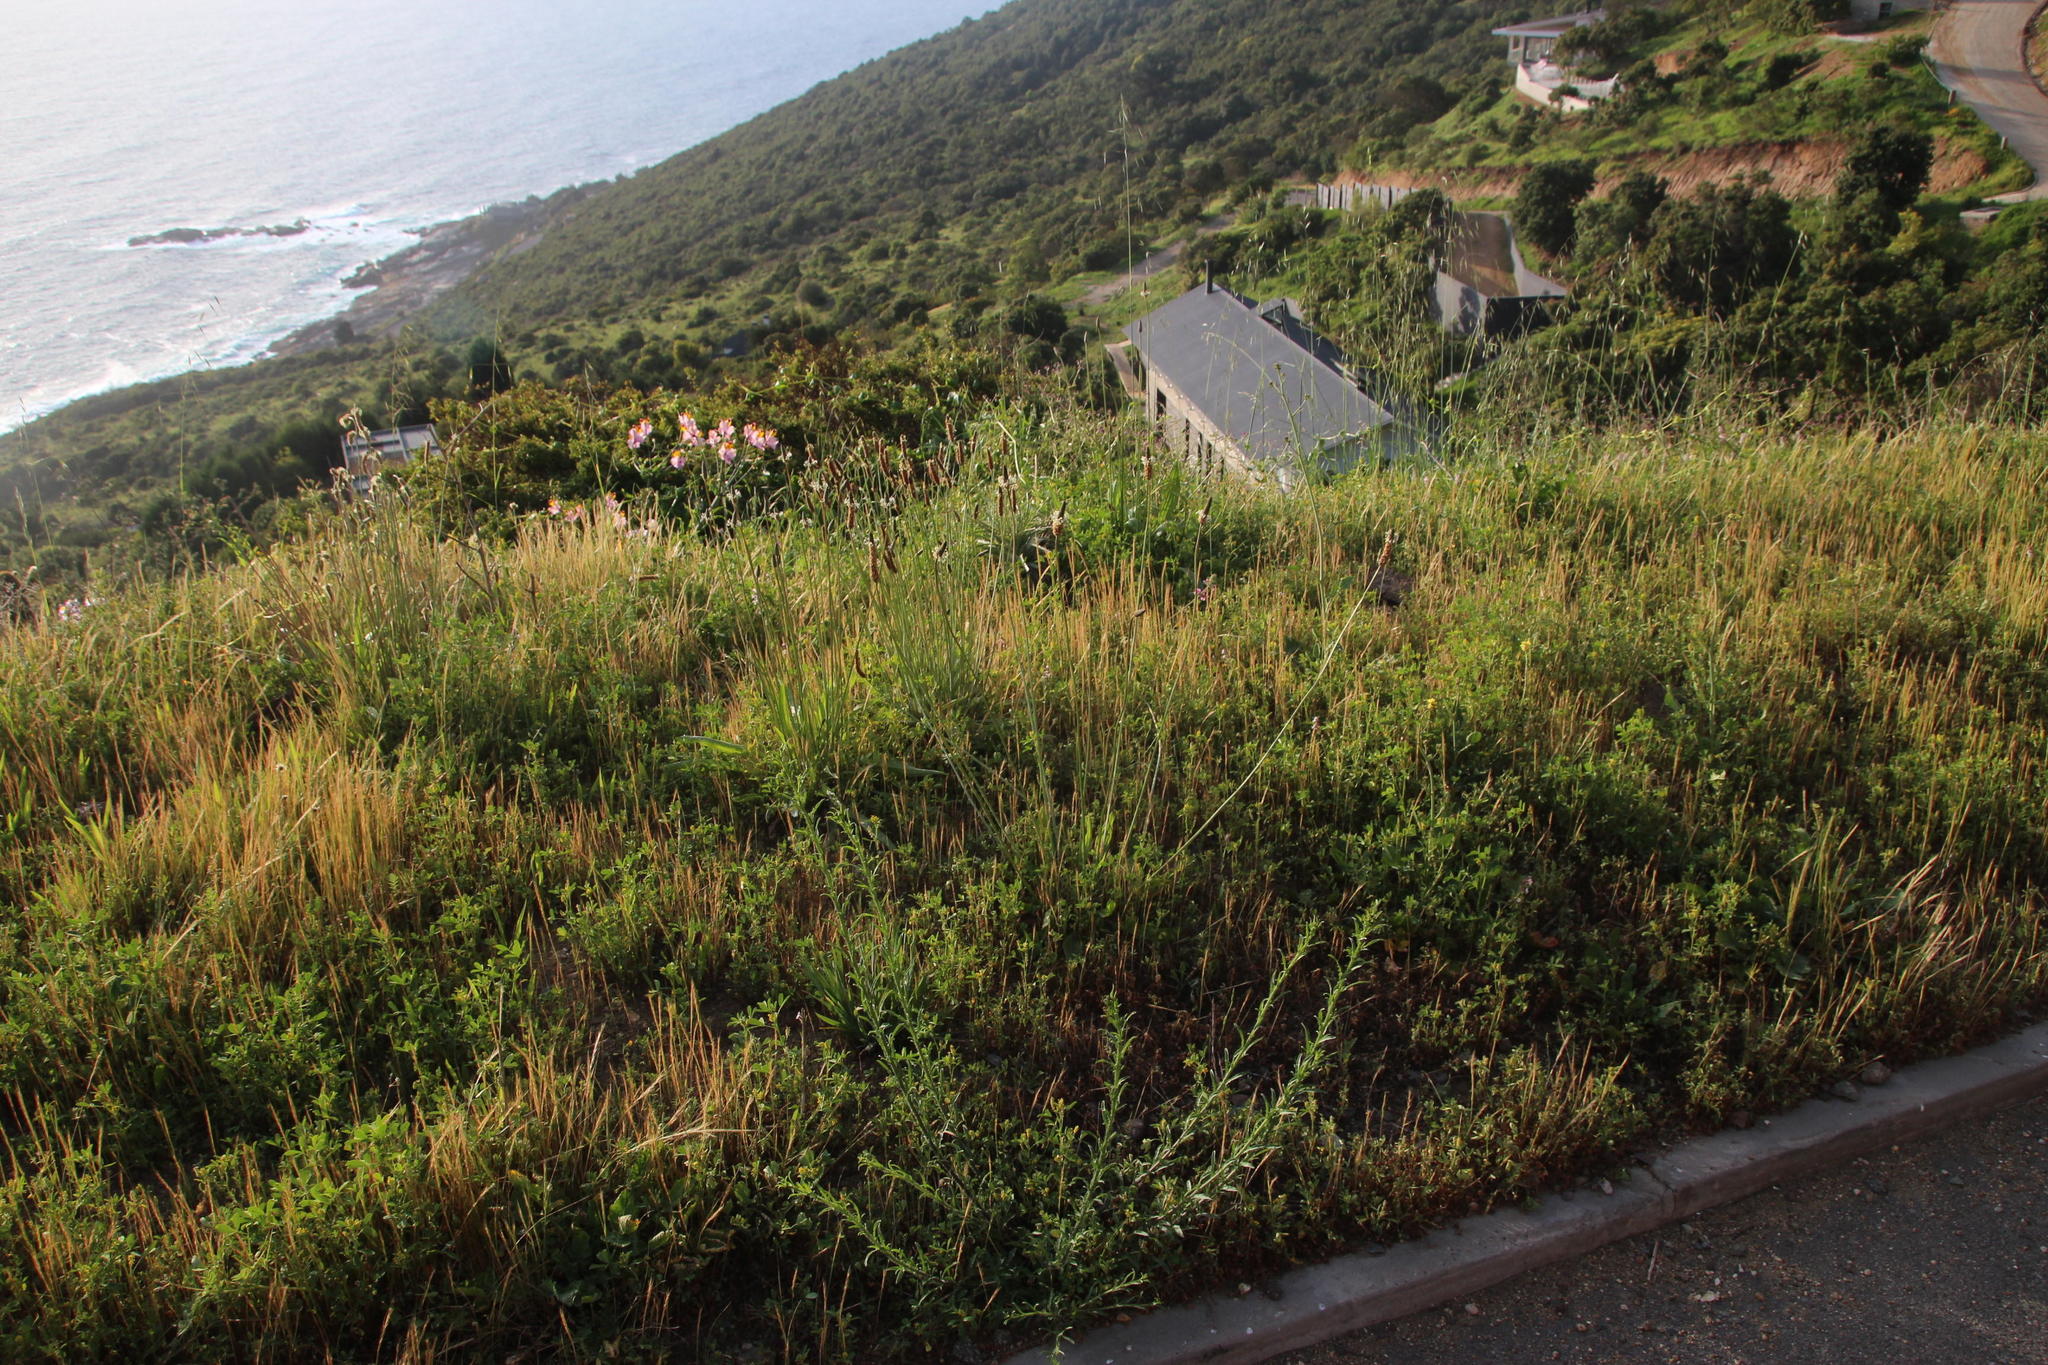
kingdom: Plantae
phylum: Tracheophyta
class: Magnoliopsida
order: Lamiales
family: Plantaginaceae
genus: Plantago
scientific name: Plantago lanceolata
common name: Ribwort plantain
